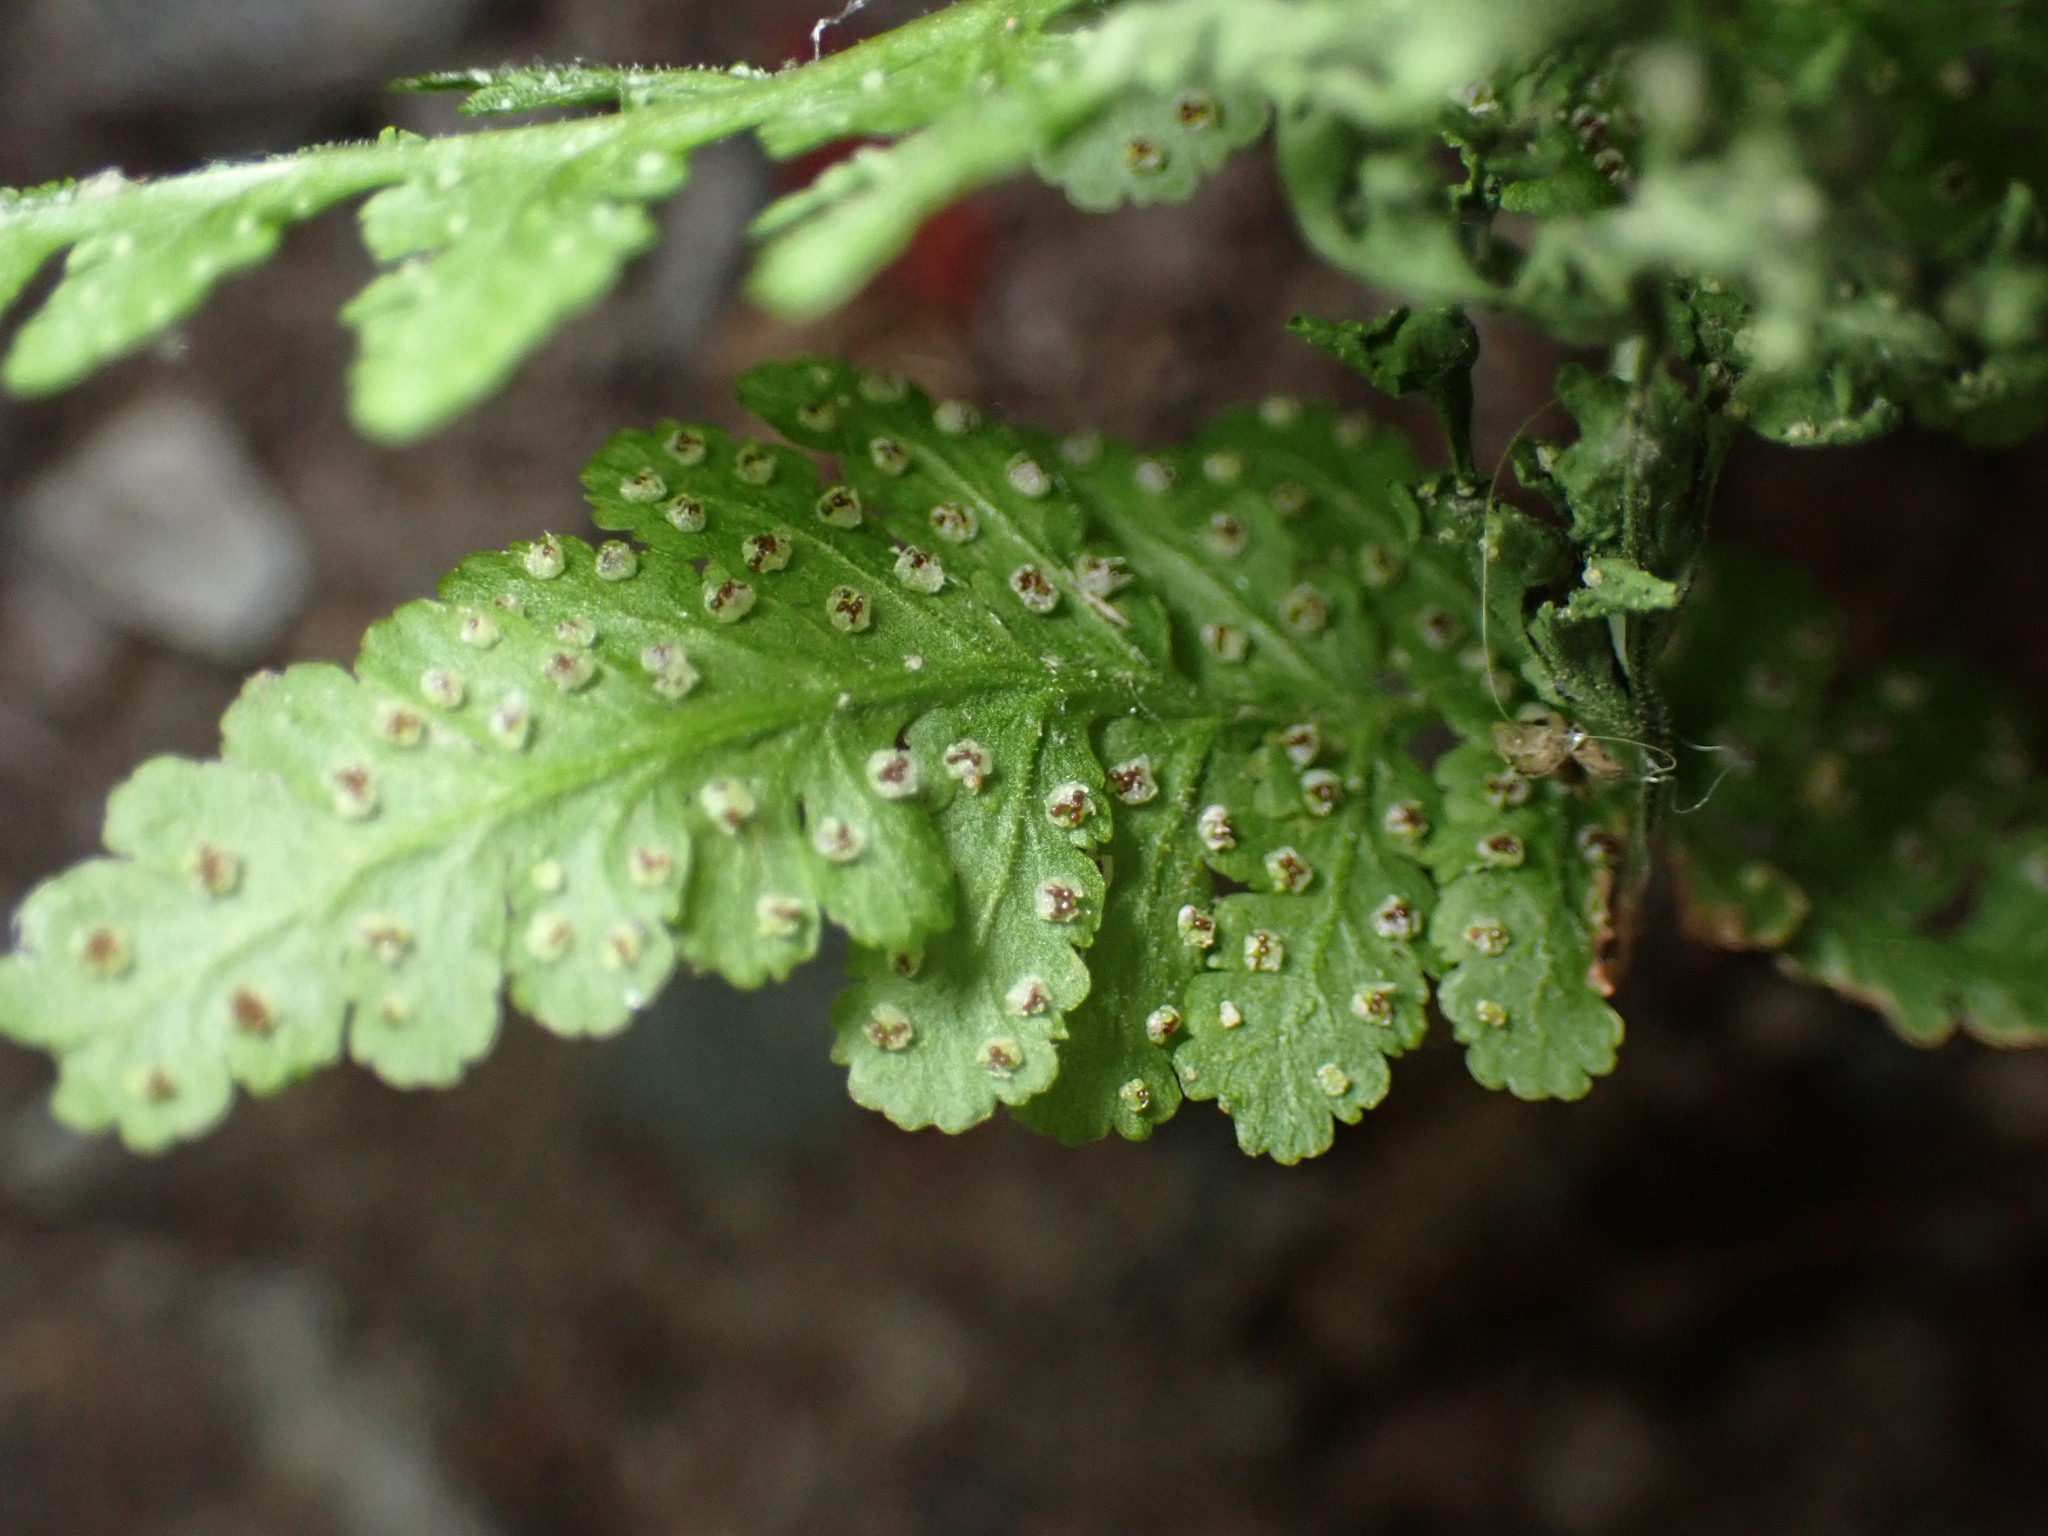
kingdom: Plantae
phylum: Tracheophyta
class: Polypodiopsida
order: Polypodiales
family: Woodsiaceae
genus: Physematium
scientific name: Physematium obtusum
